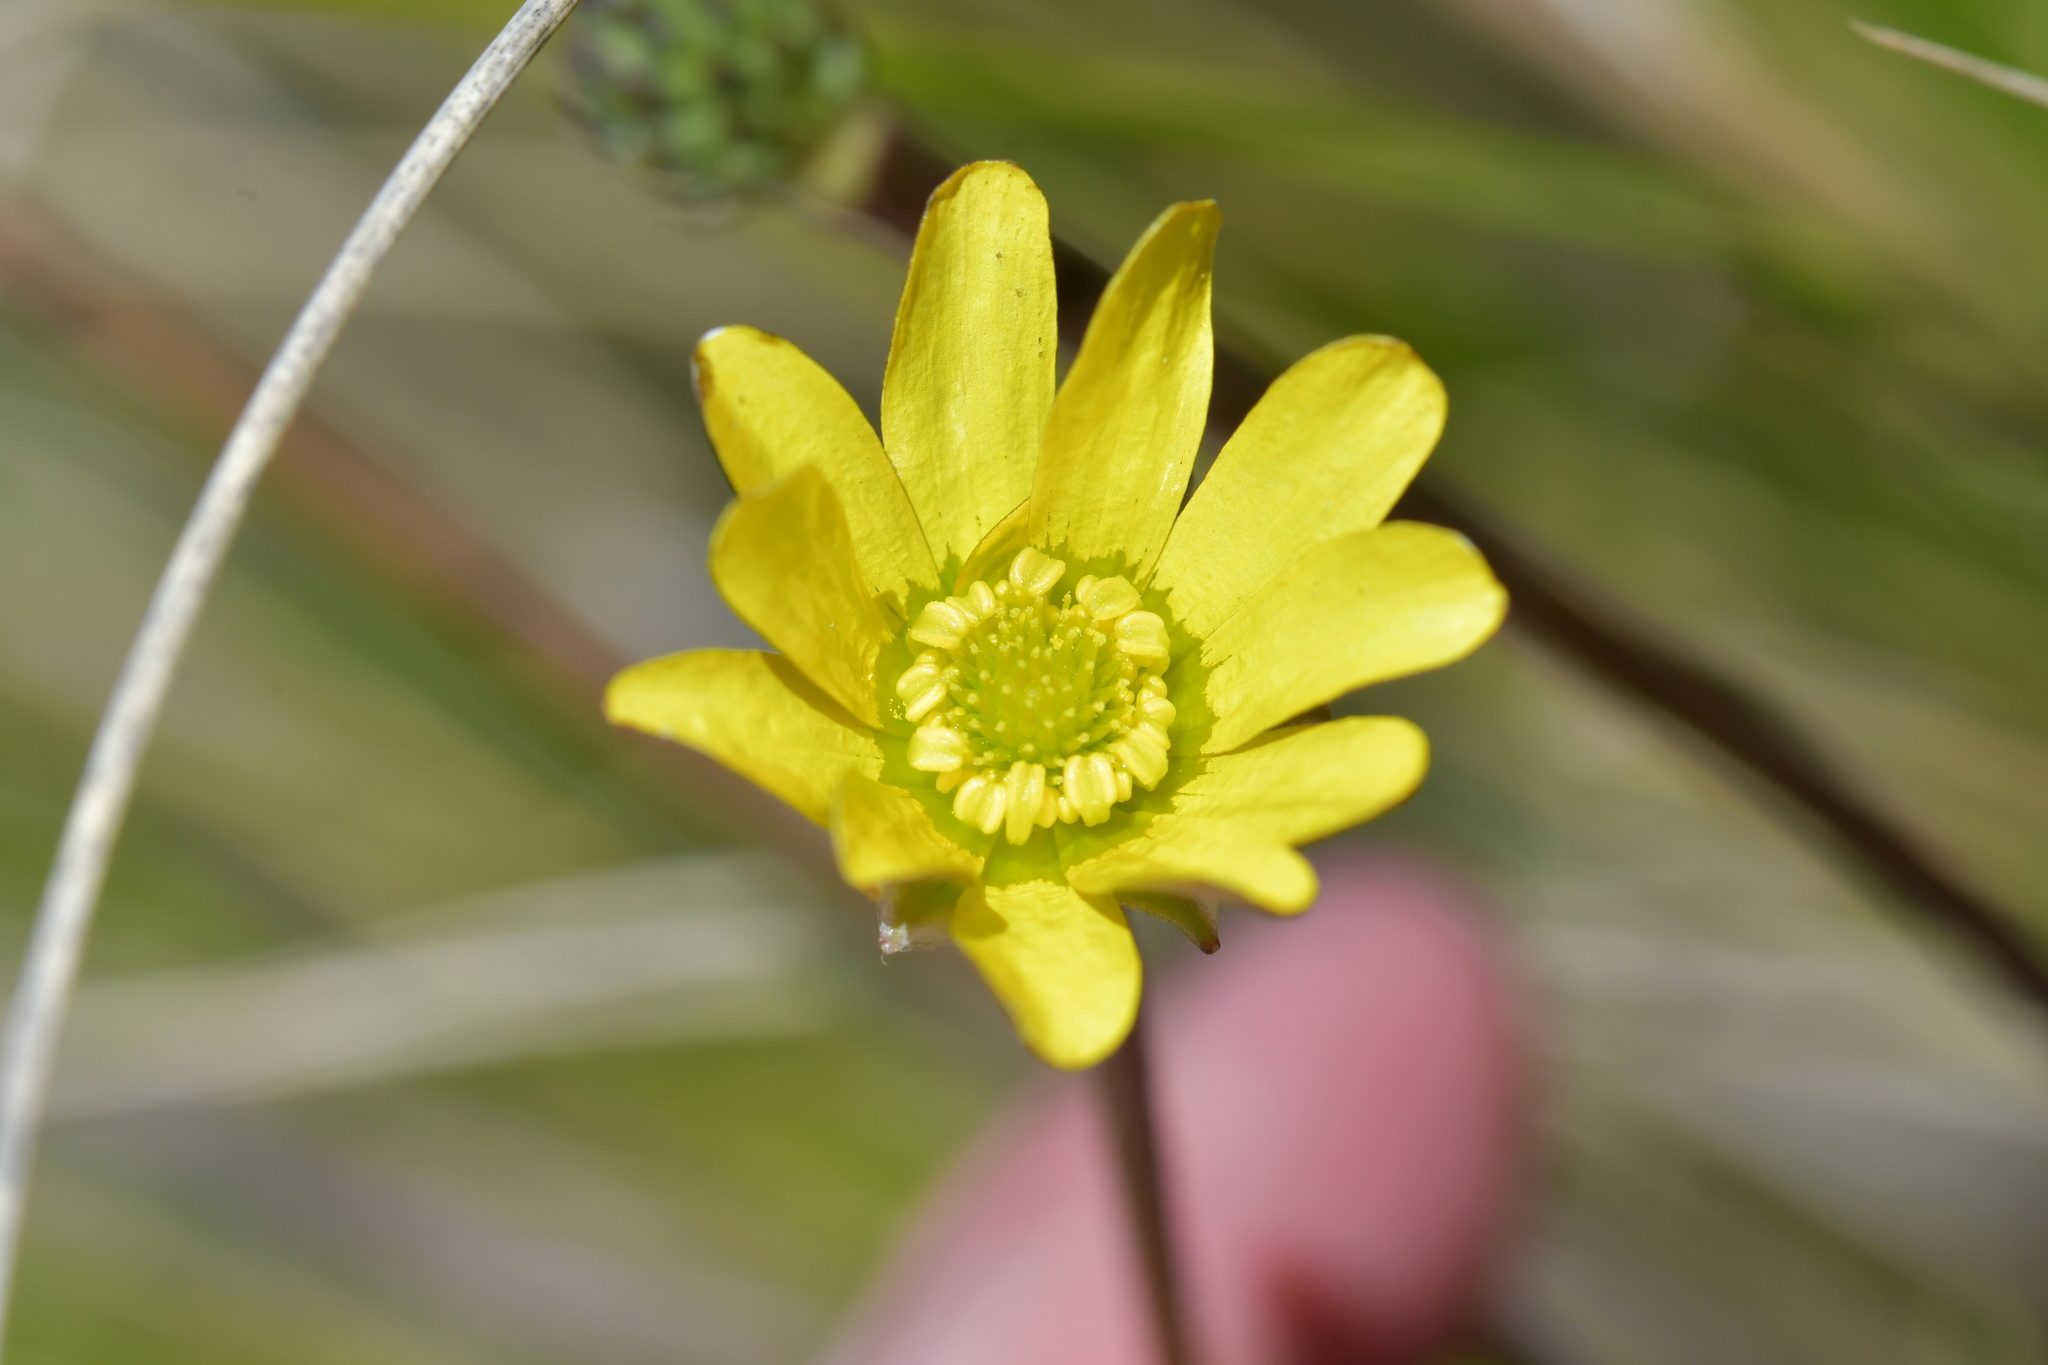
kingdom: Plantae
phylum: Tracheophyta
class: Magnoliopsida
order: Ranunculales
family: Ranunculaceae
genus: Ranunculus
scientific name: Ranunculus verticillatus
